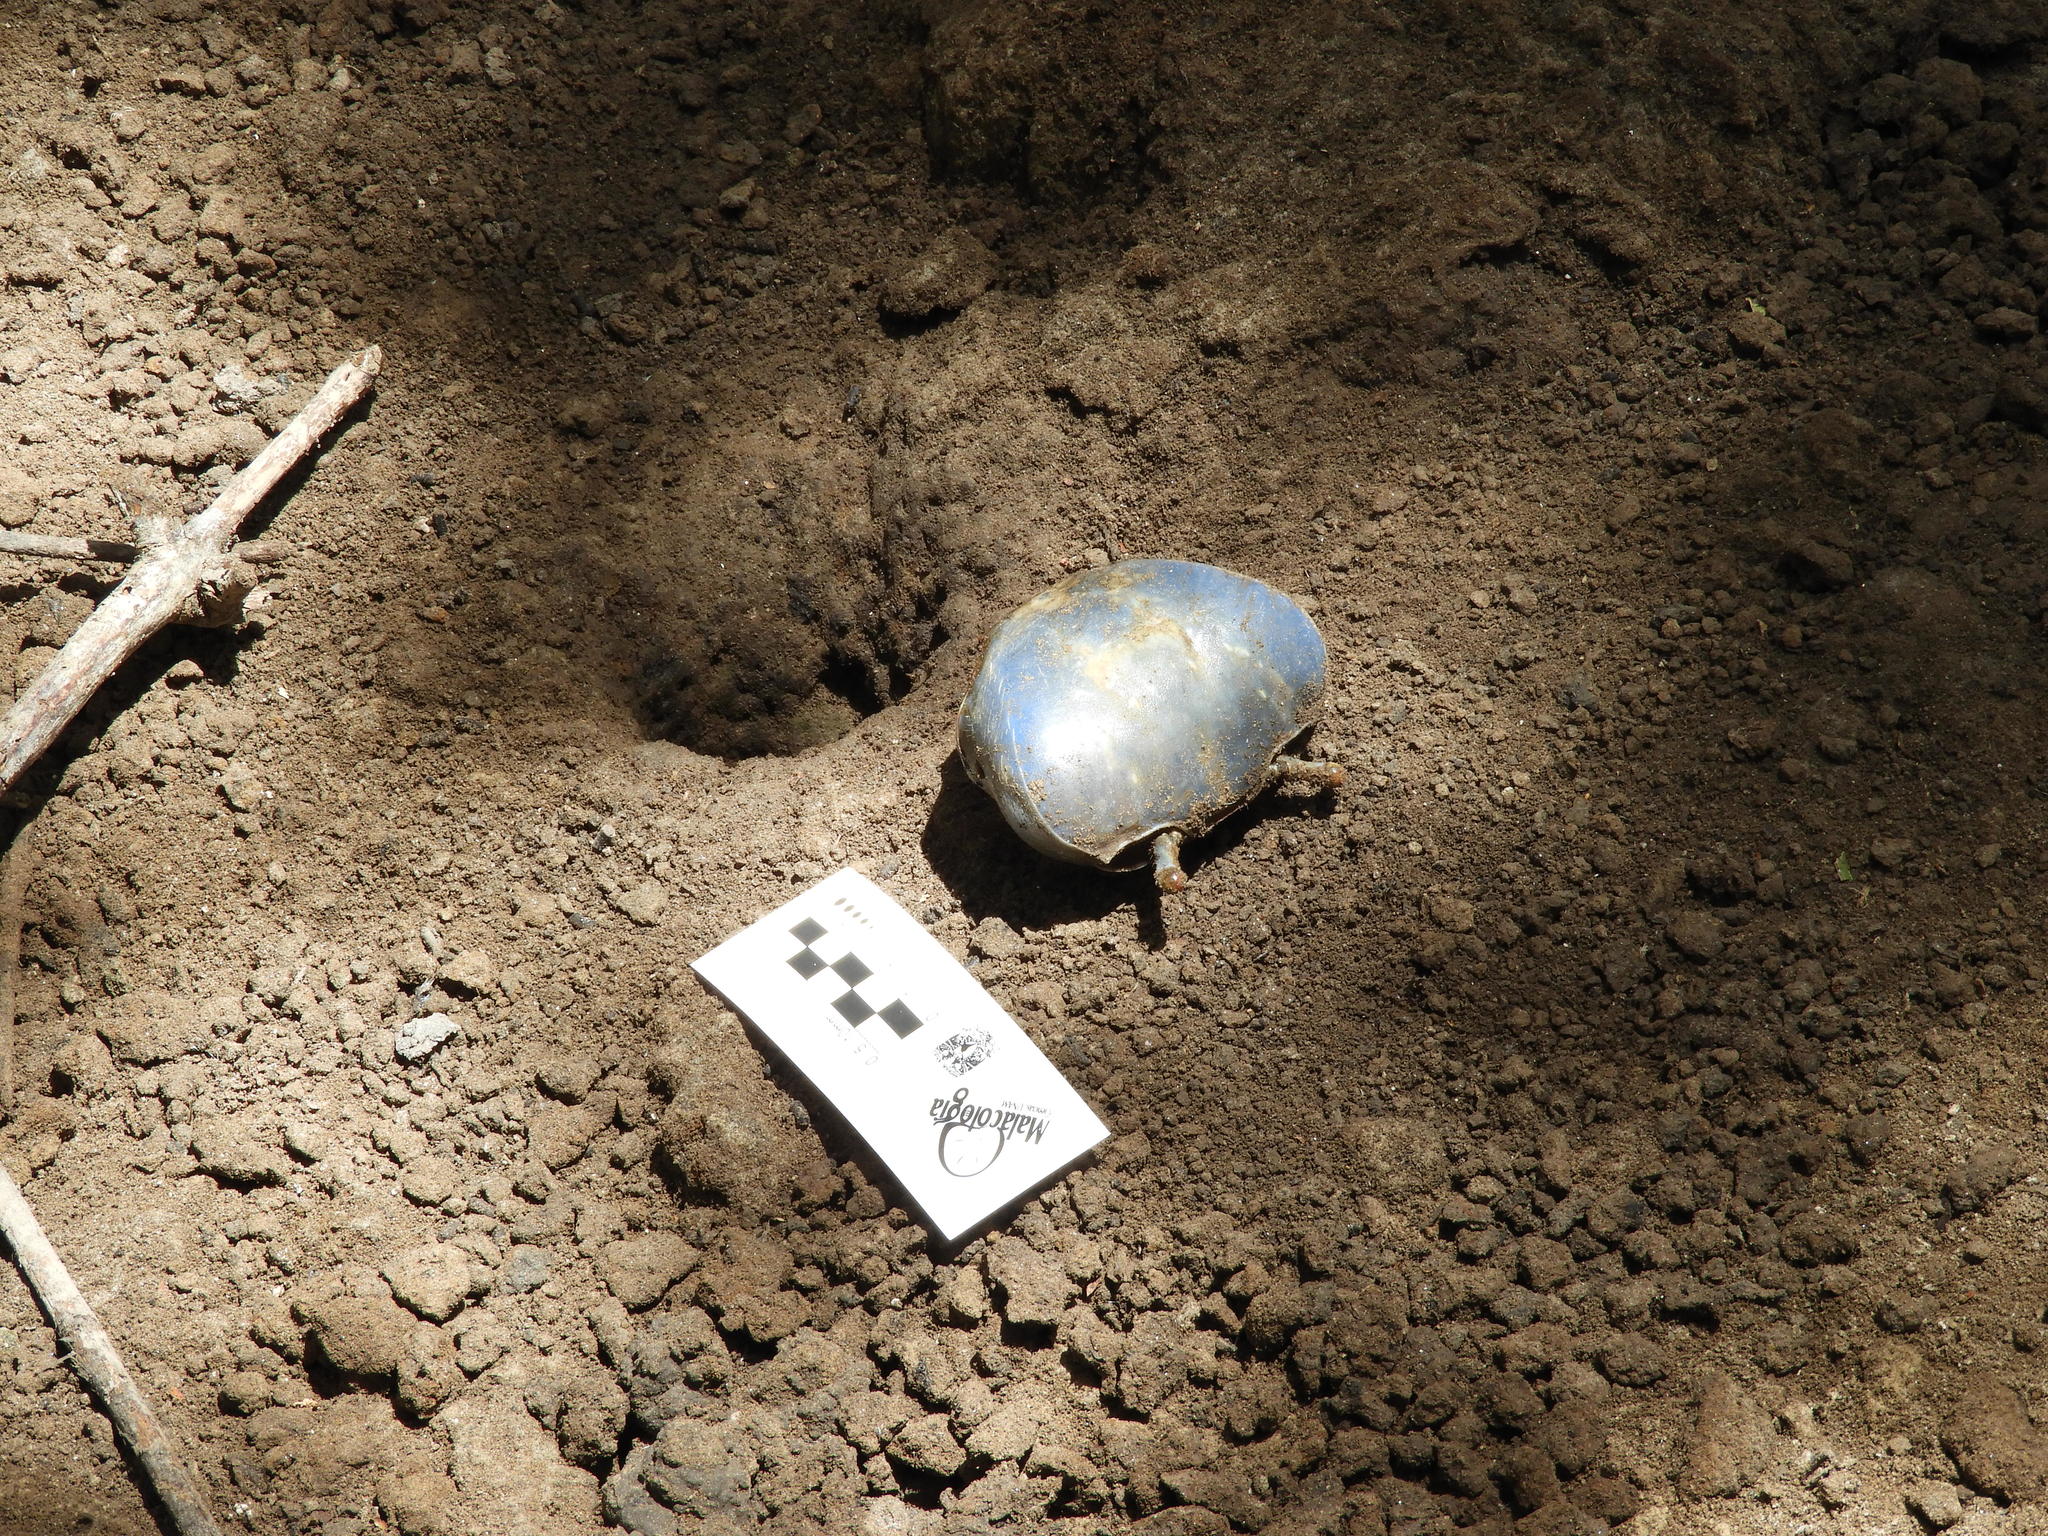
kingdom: Animalia
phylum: Arthropoda
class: Malacostraca
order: Decapoda
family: Gecarcinidae
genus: Cardisoma
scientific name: Cardisoma crassum
